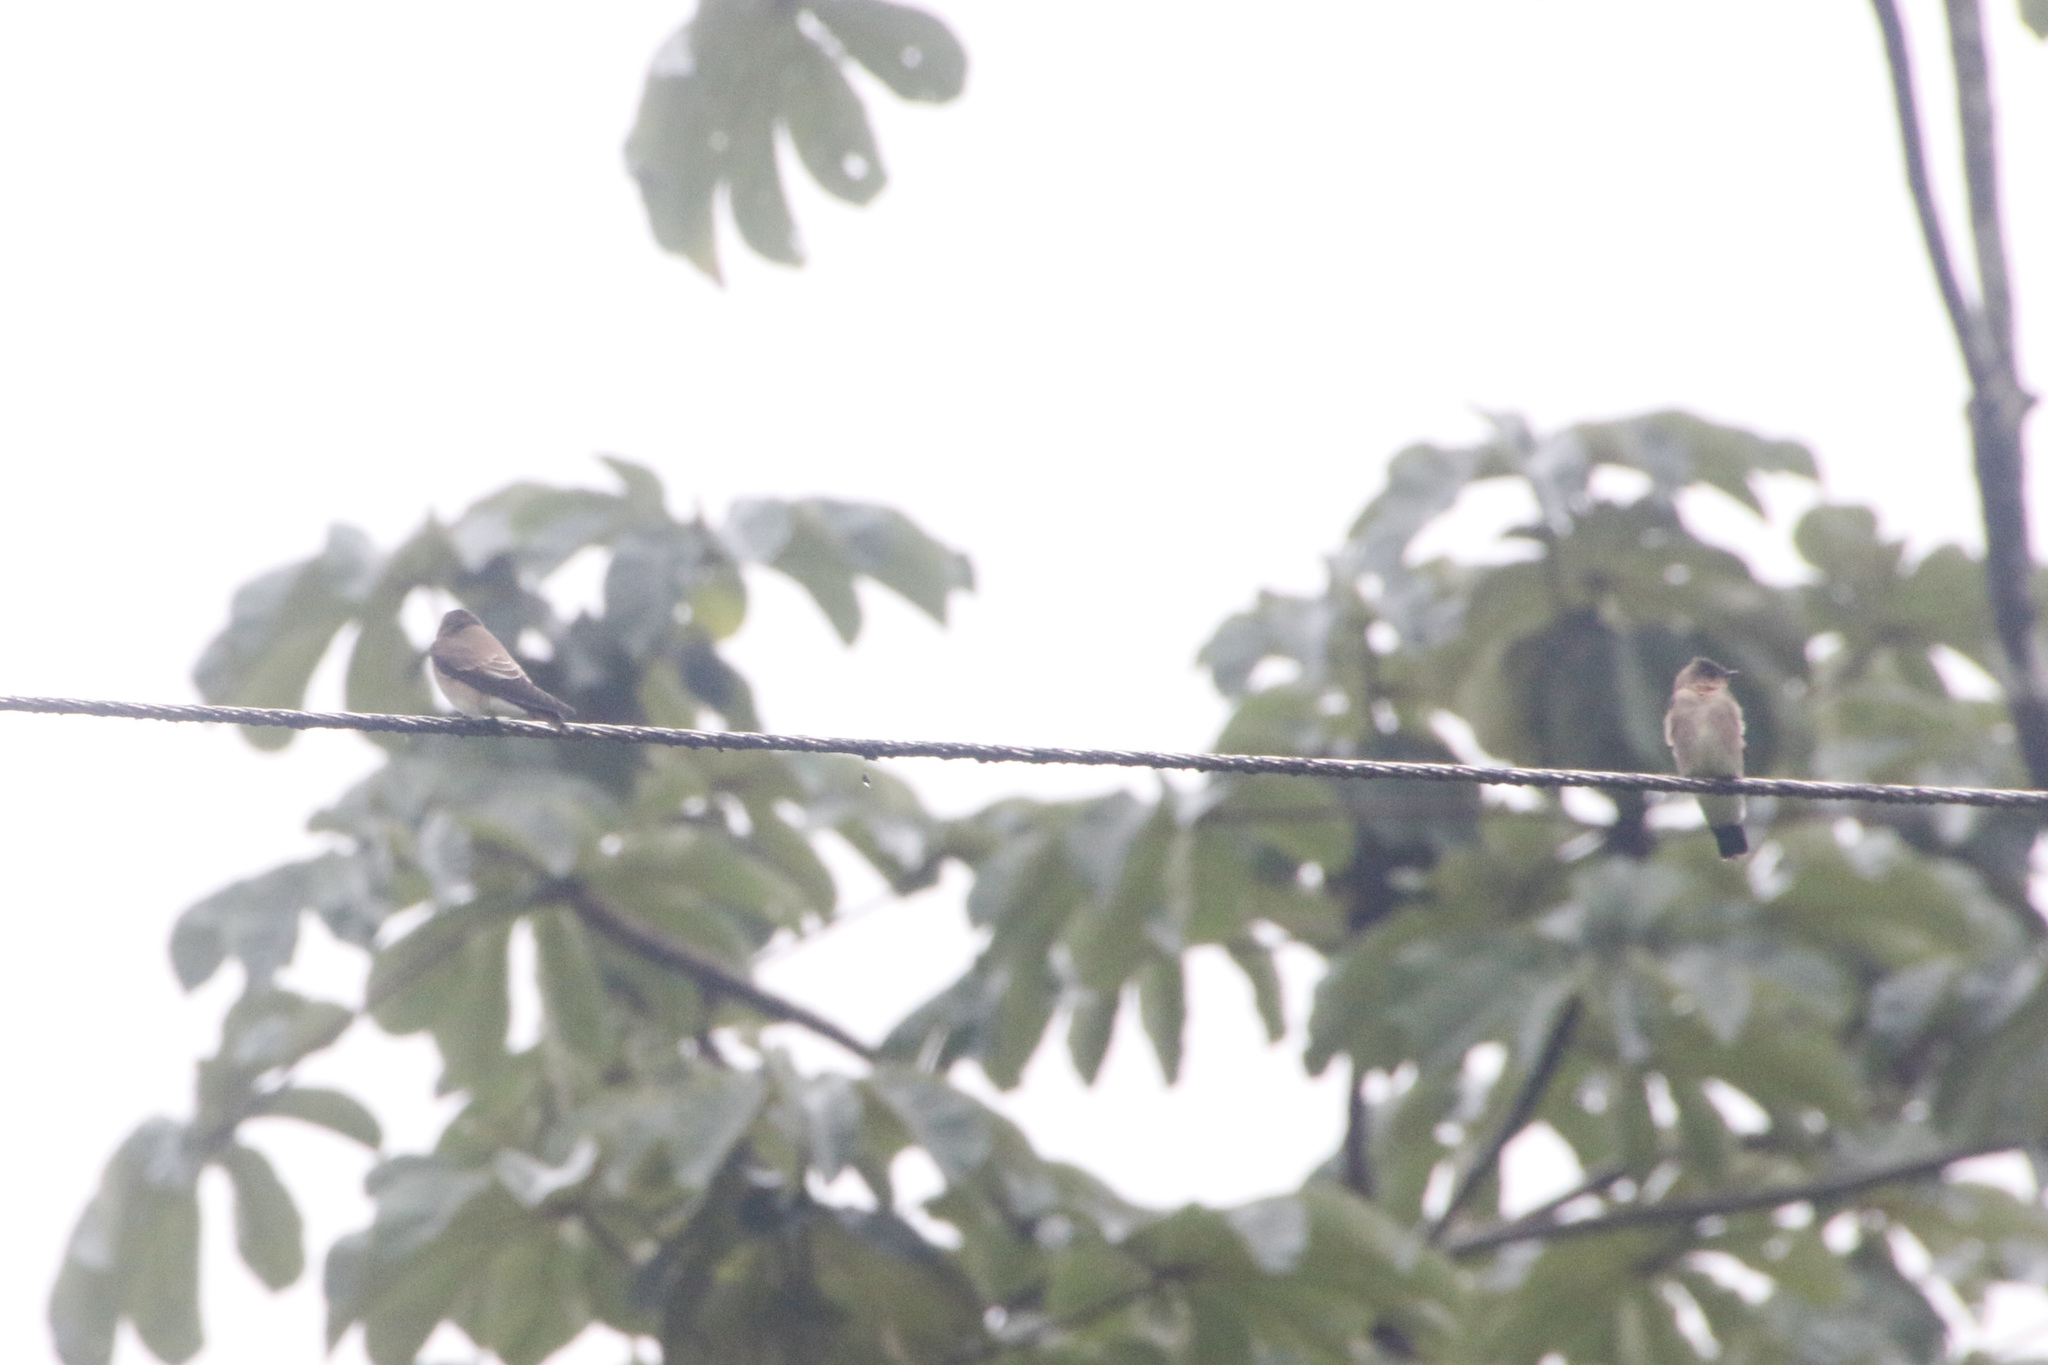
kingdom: Animalia
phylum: Chordata
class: Aves
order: Passeriformes
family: Hirundinidae
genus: Stelgidopteryx
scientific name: Stelgidopteryx ruficollis
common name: Southern rough-winged swallow
